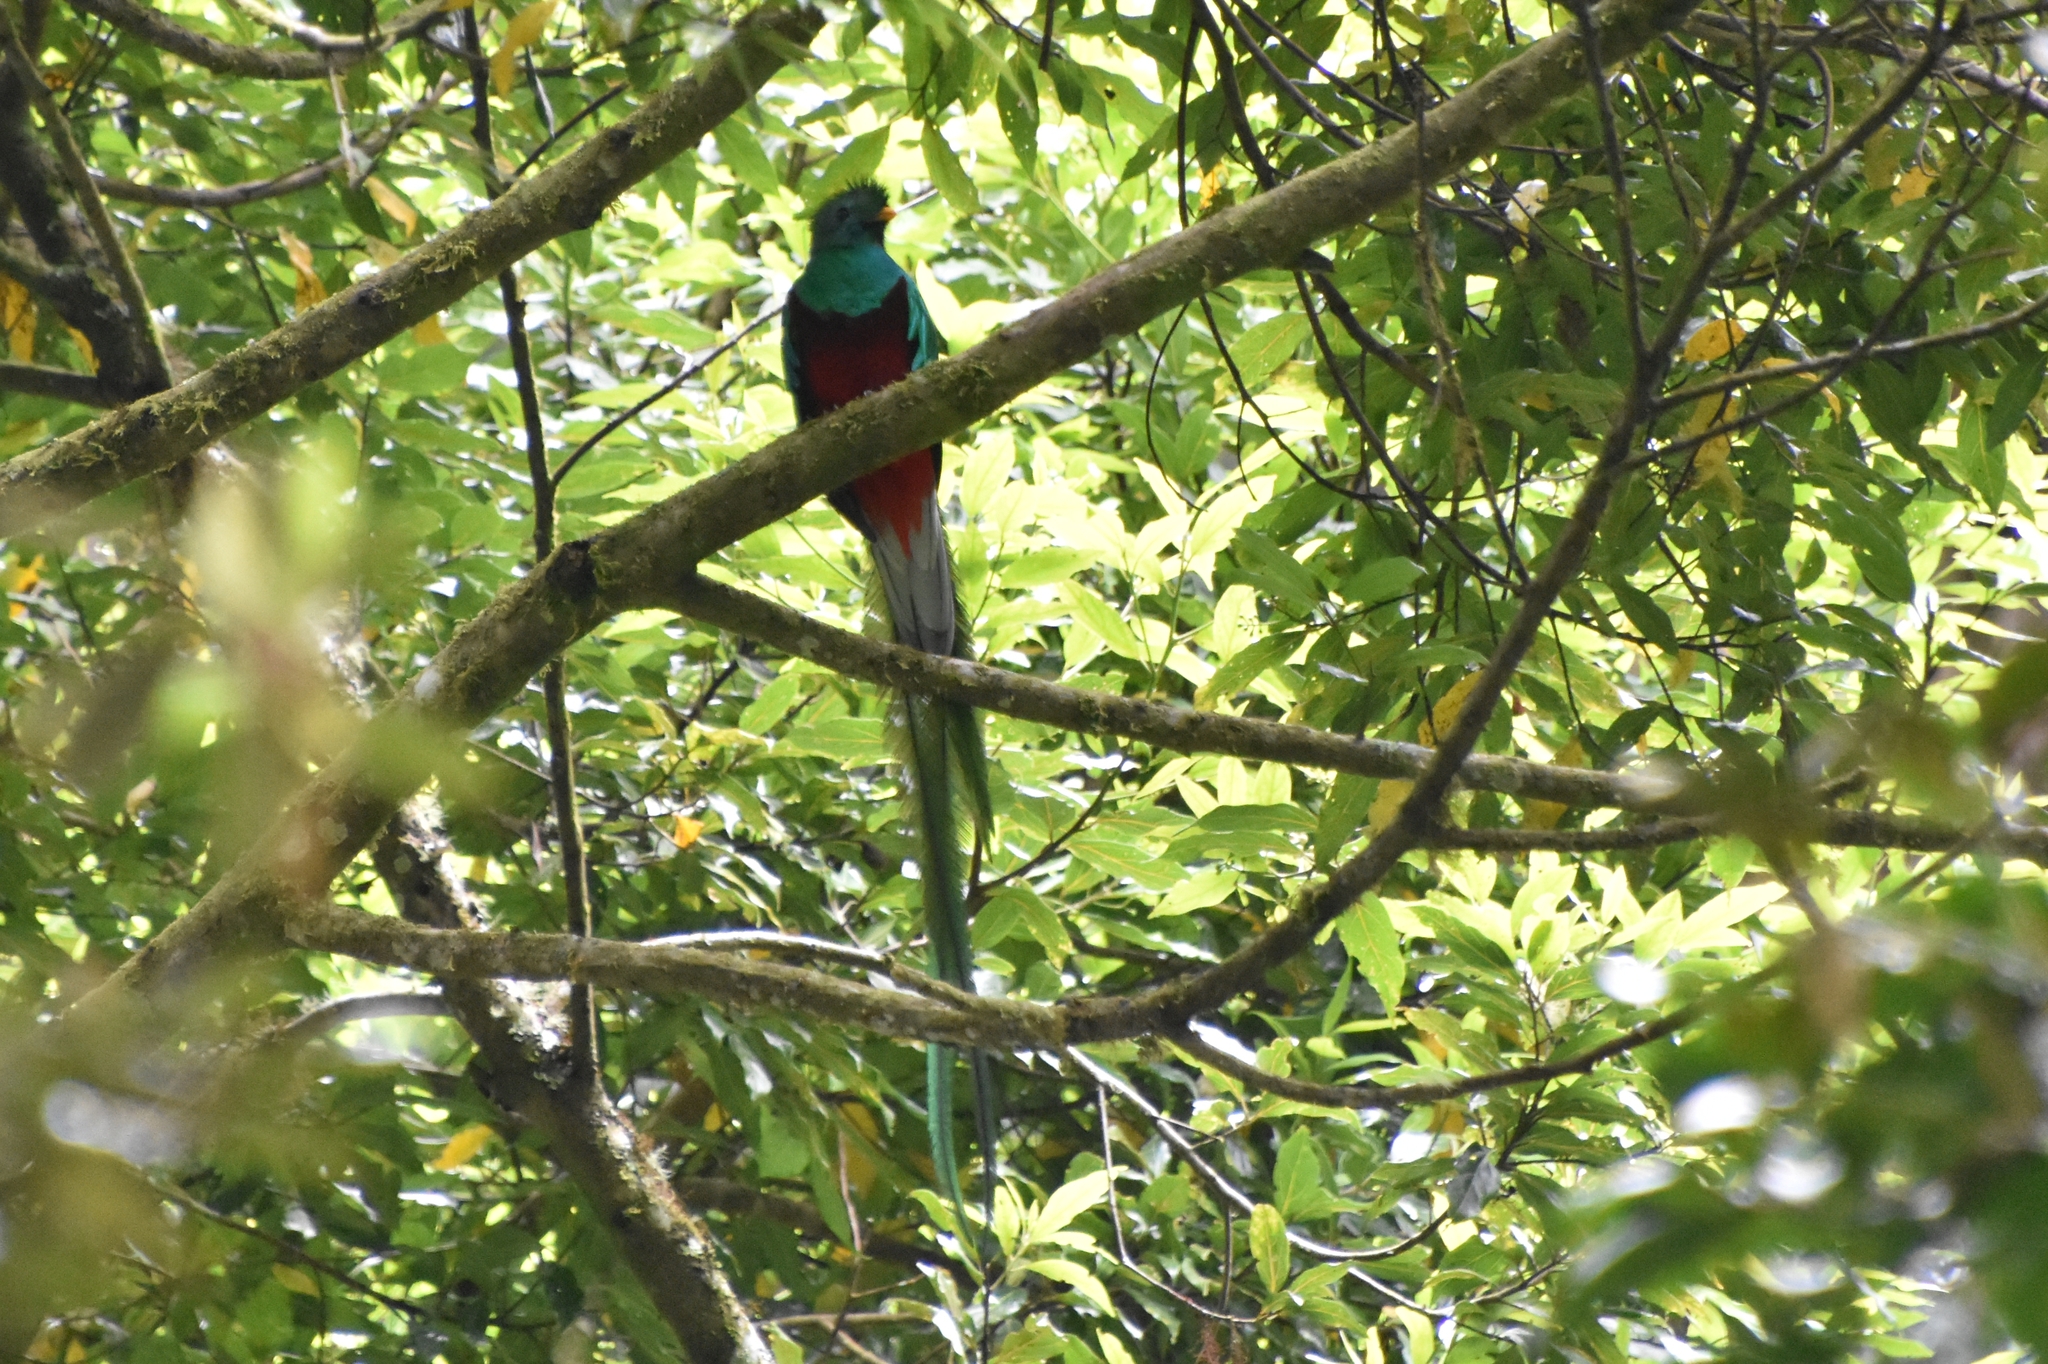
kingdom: Animalia
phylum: Chordata
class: Aves
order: Trogoniformes
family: Trogonidae
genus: Pharomachrus
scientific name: Pharomachrus mocinno
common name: Resplendent quetzal
